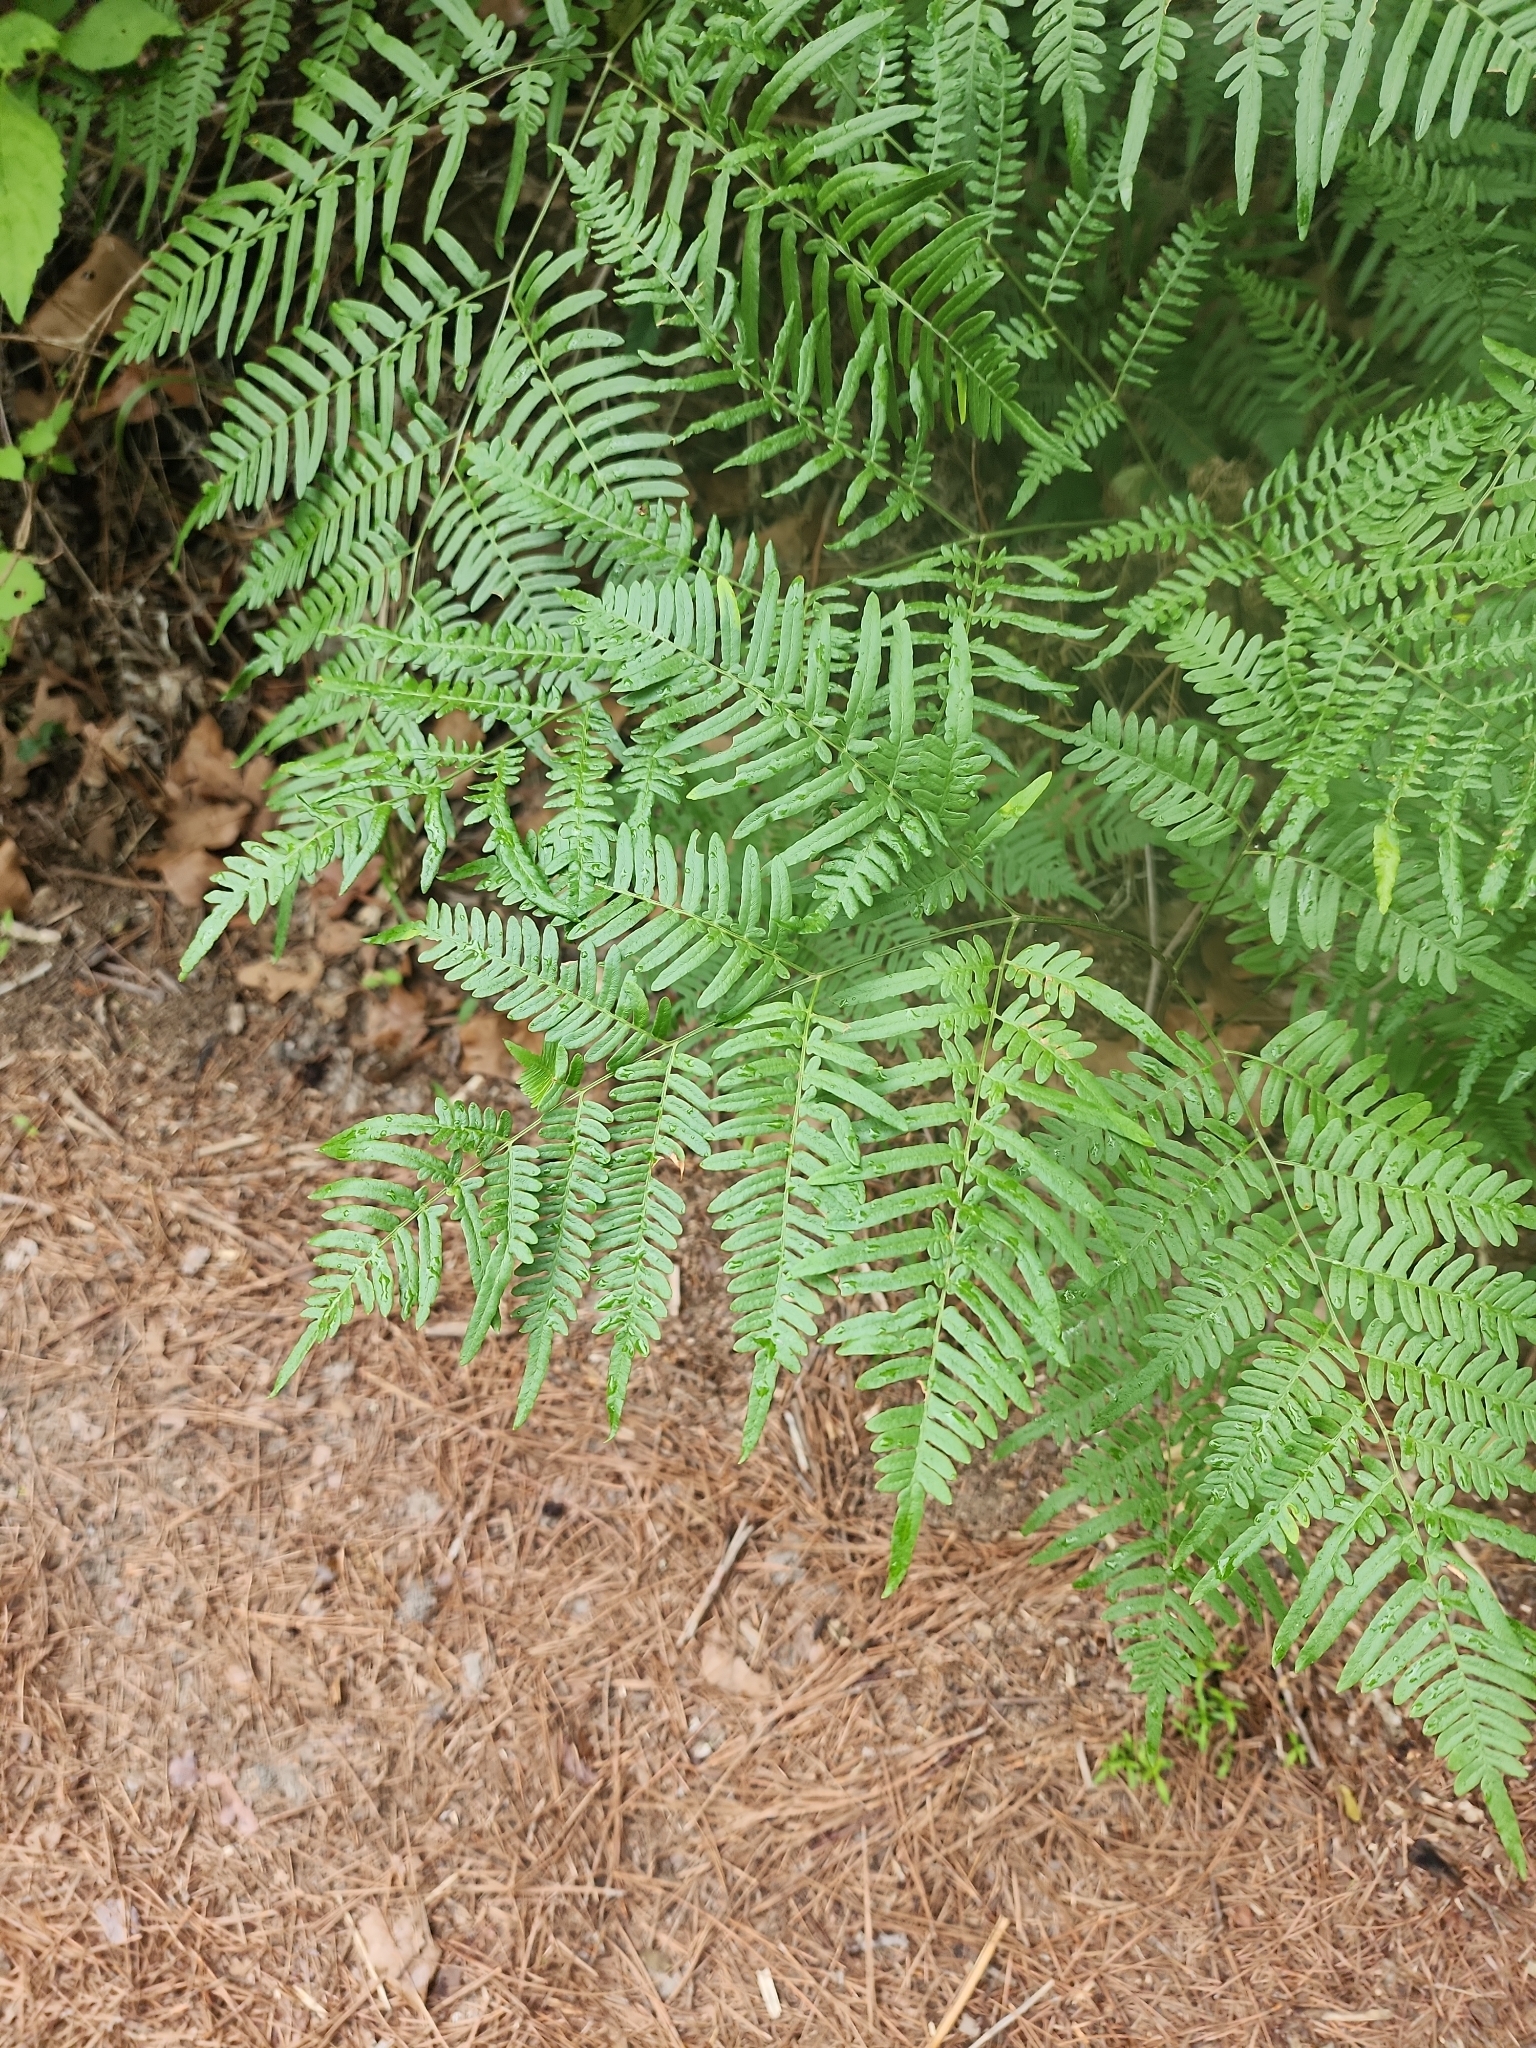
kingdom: Plantae
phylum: Tracheophyta
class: Polypodiopsida
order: Polypodiales
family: Dennstaedtiaceae
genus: Pteridium
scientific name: Pteridium aquilinum
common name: Bracken
